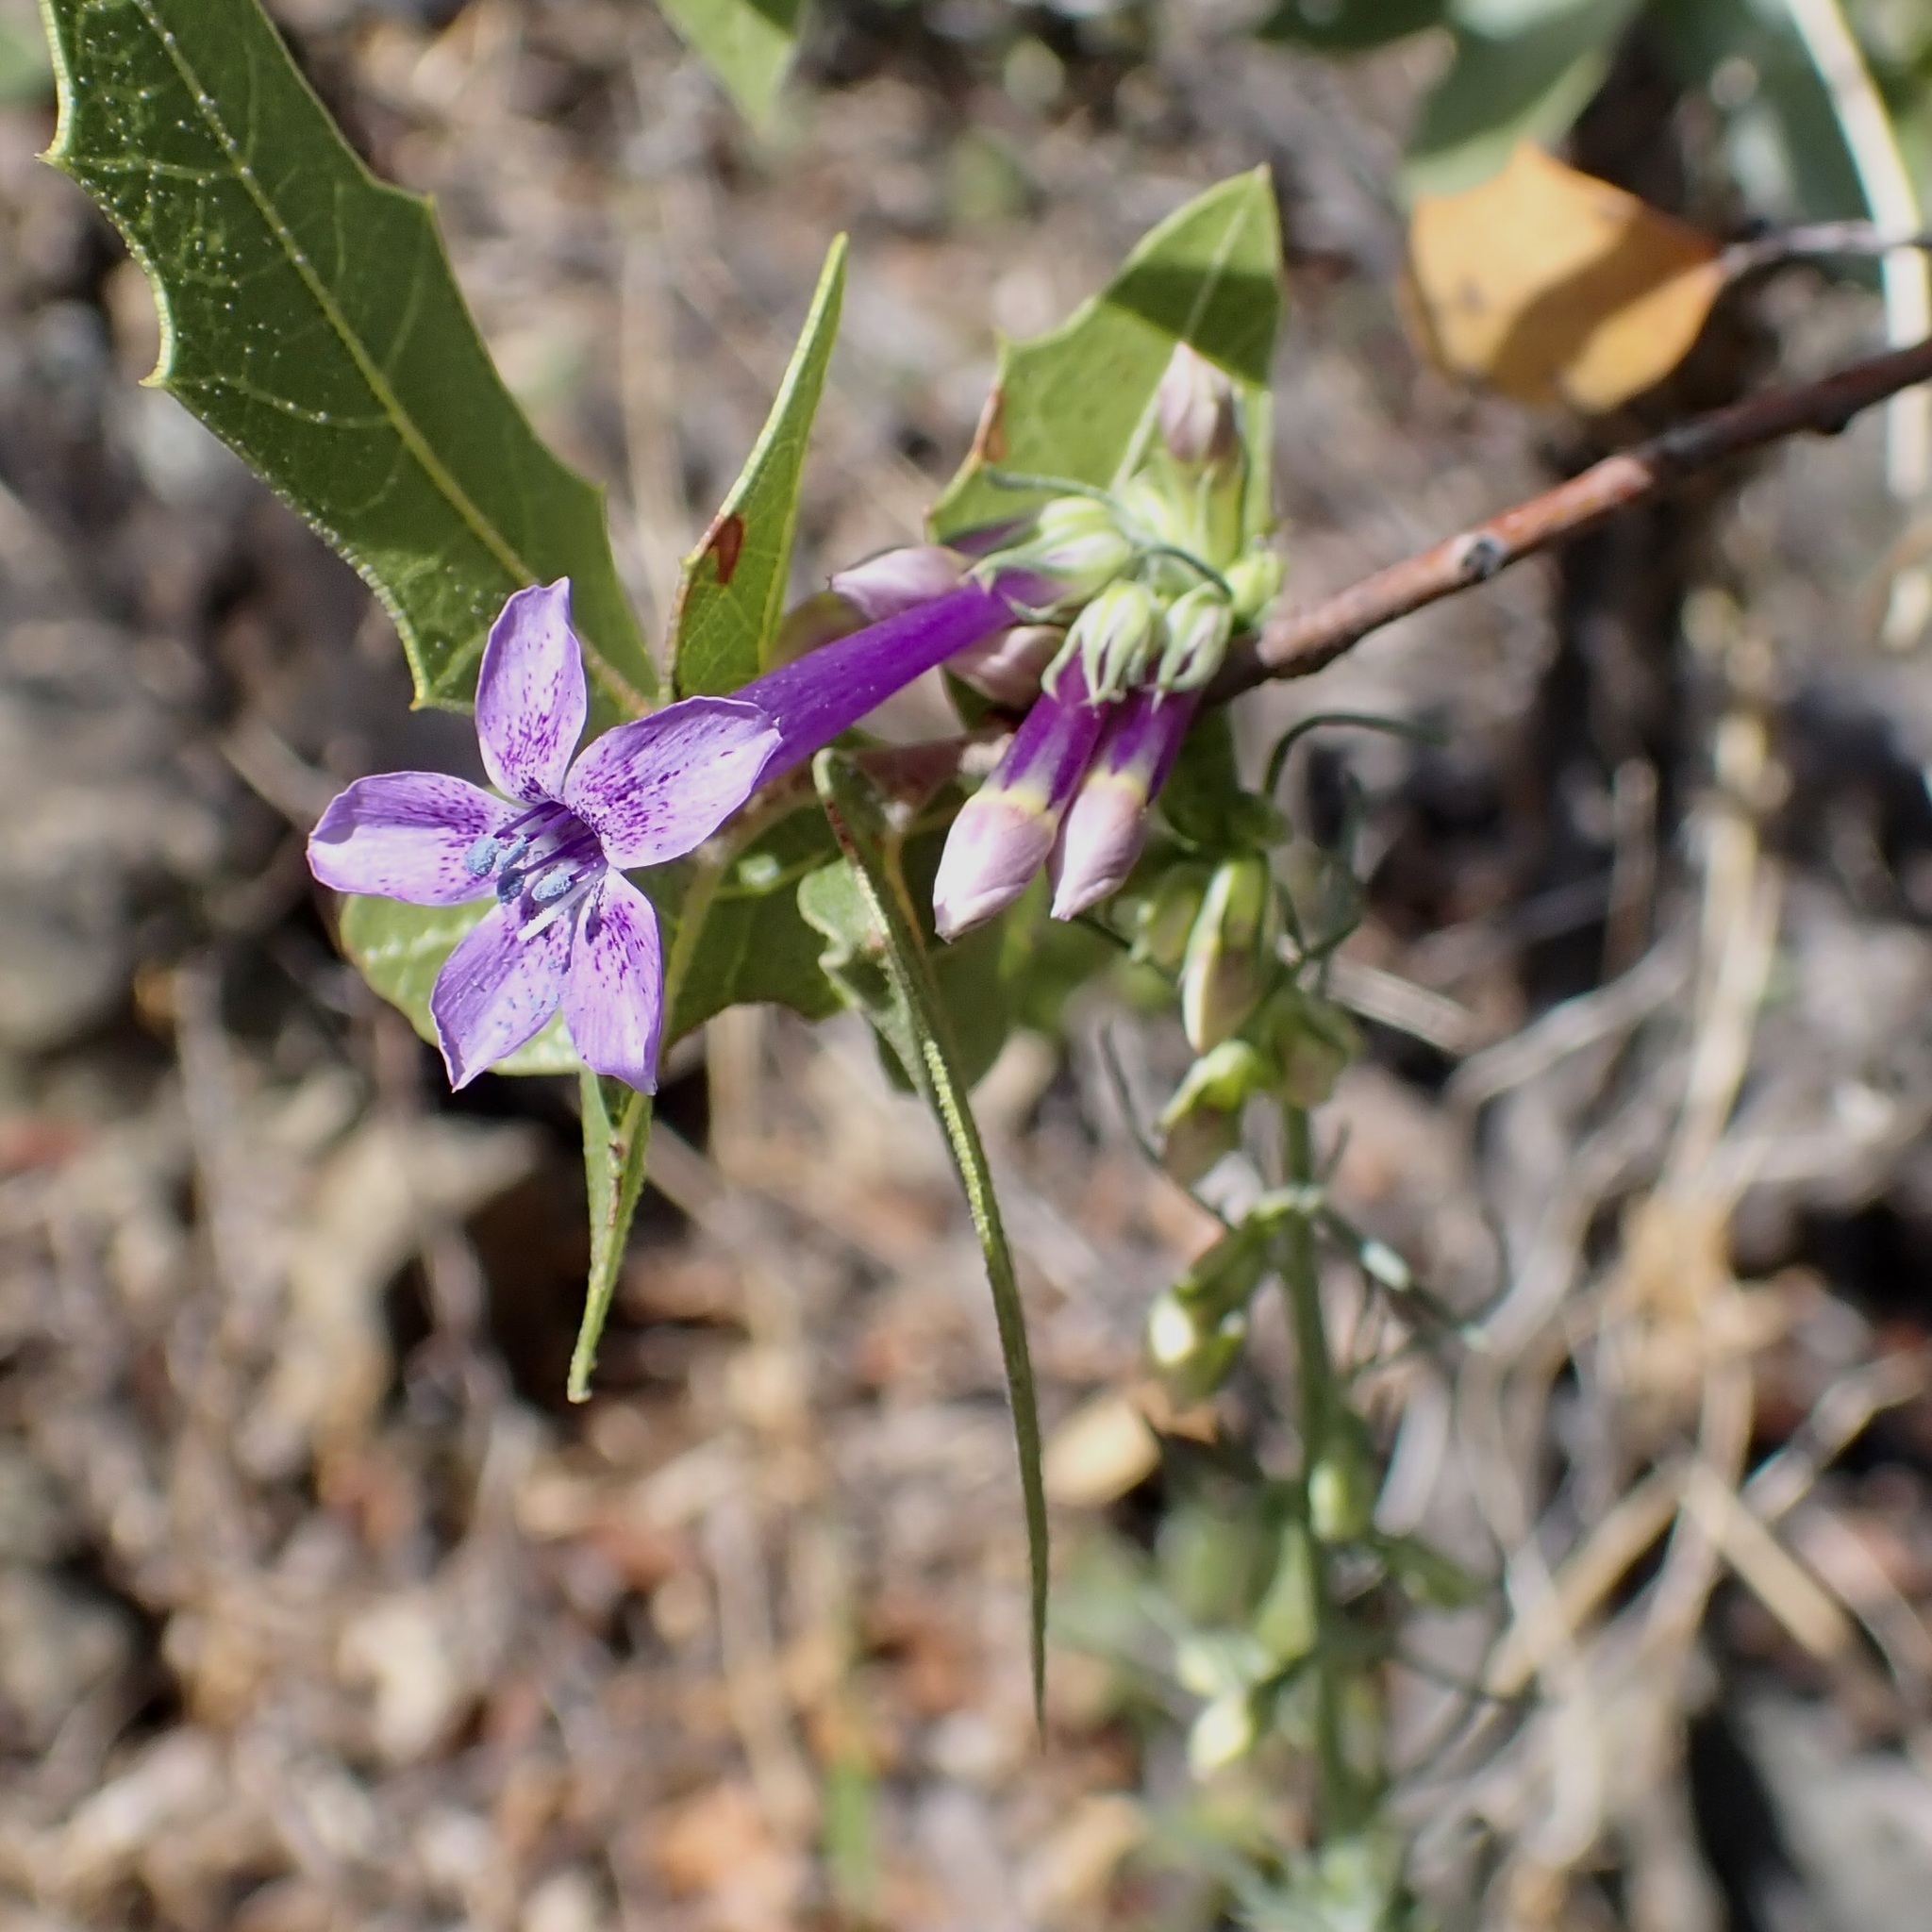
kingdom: Plantae
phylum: Tracheophyta
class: Magnoliopsida
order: Ericales
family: Polemoniaceae
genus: Ipomopsis
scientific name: Ipomopsis thurberi
